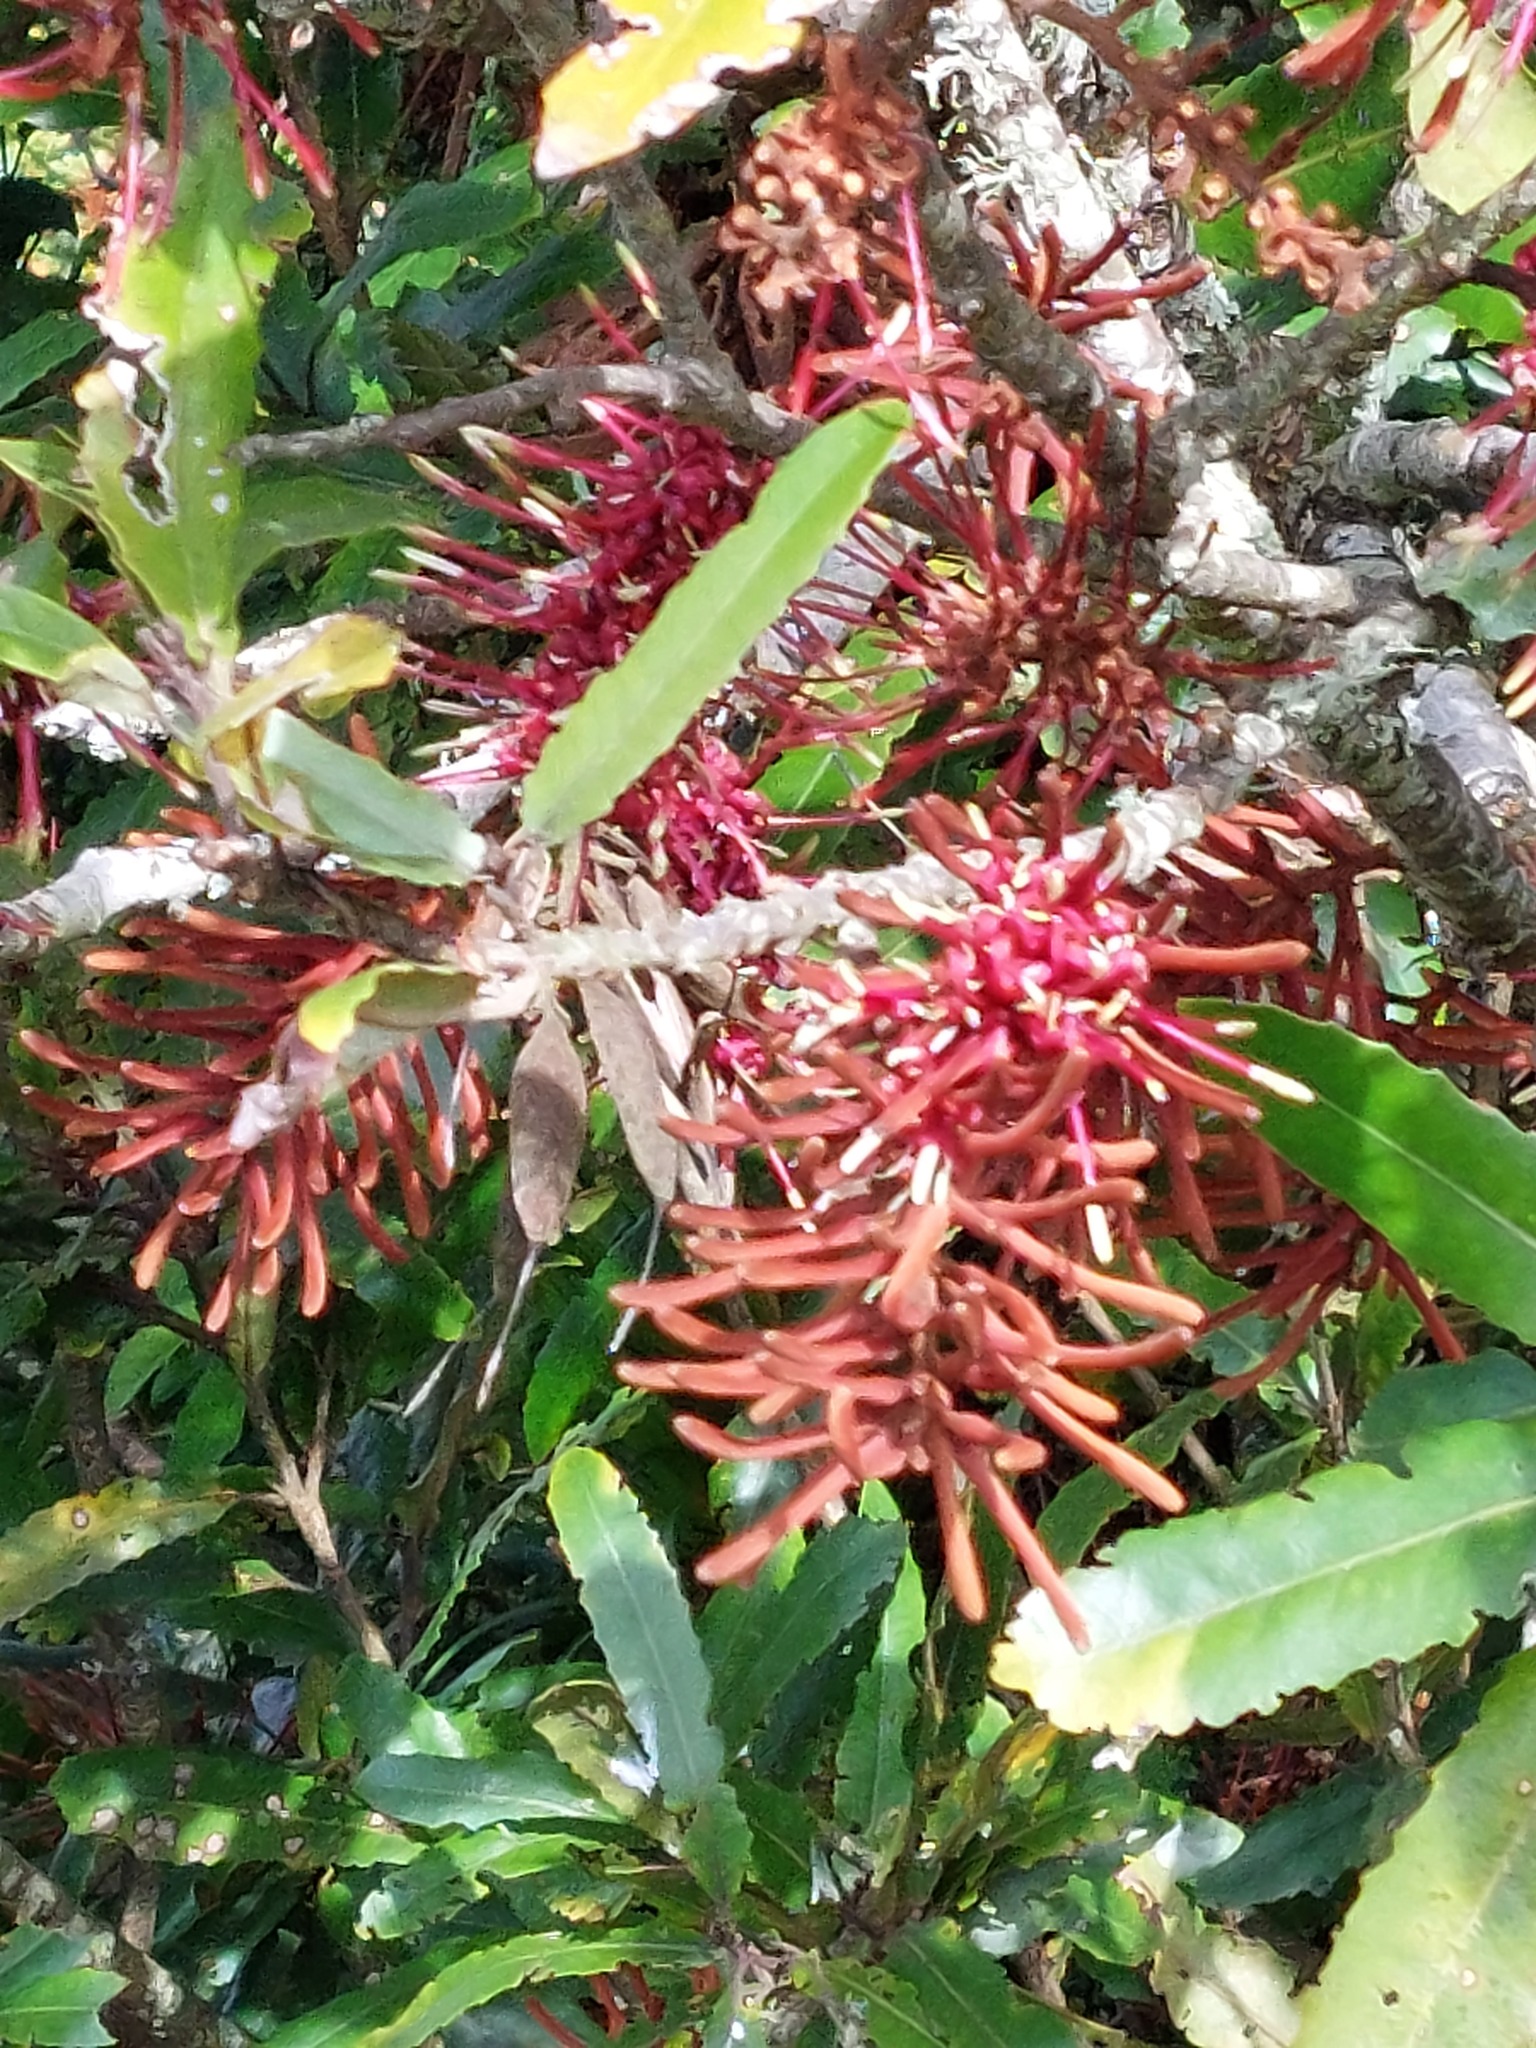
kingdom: Plantae
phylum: Tracheophyta
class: Magnoliopsida
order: Proteales
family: Proteaceae
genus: Knightia
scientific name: Knightia excelsa
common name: New zealand-honeysuckle
